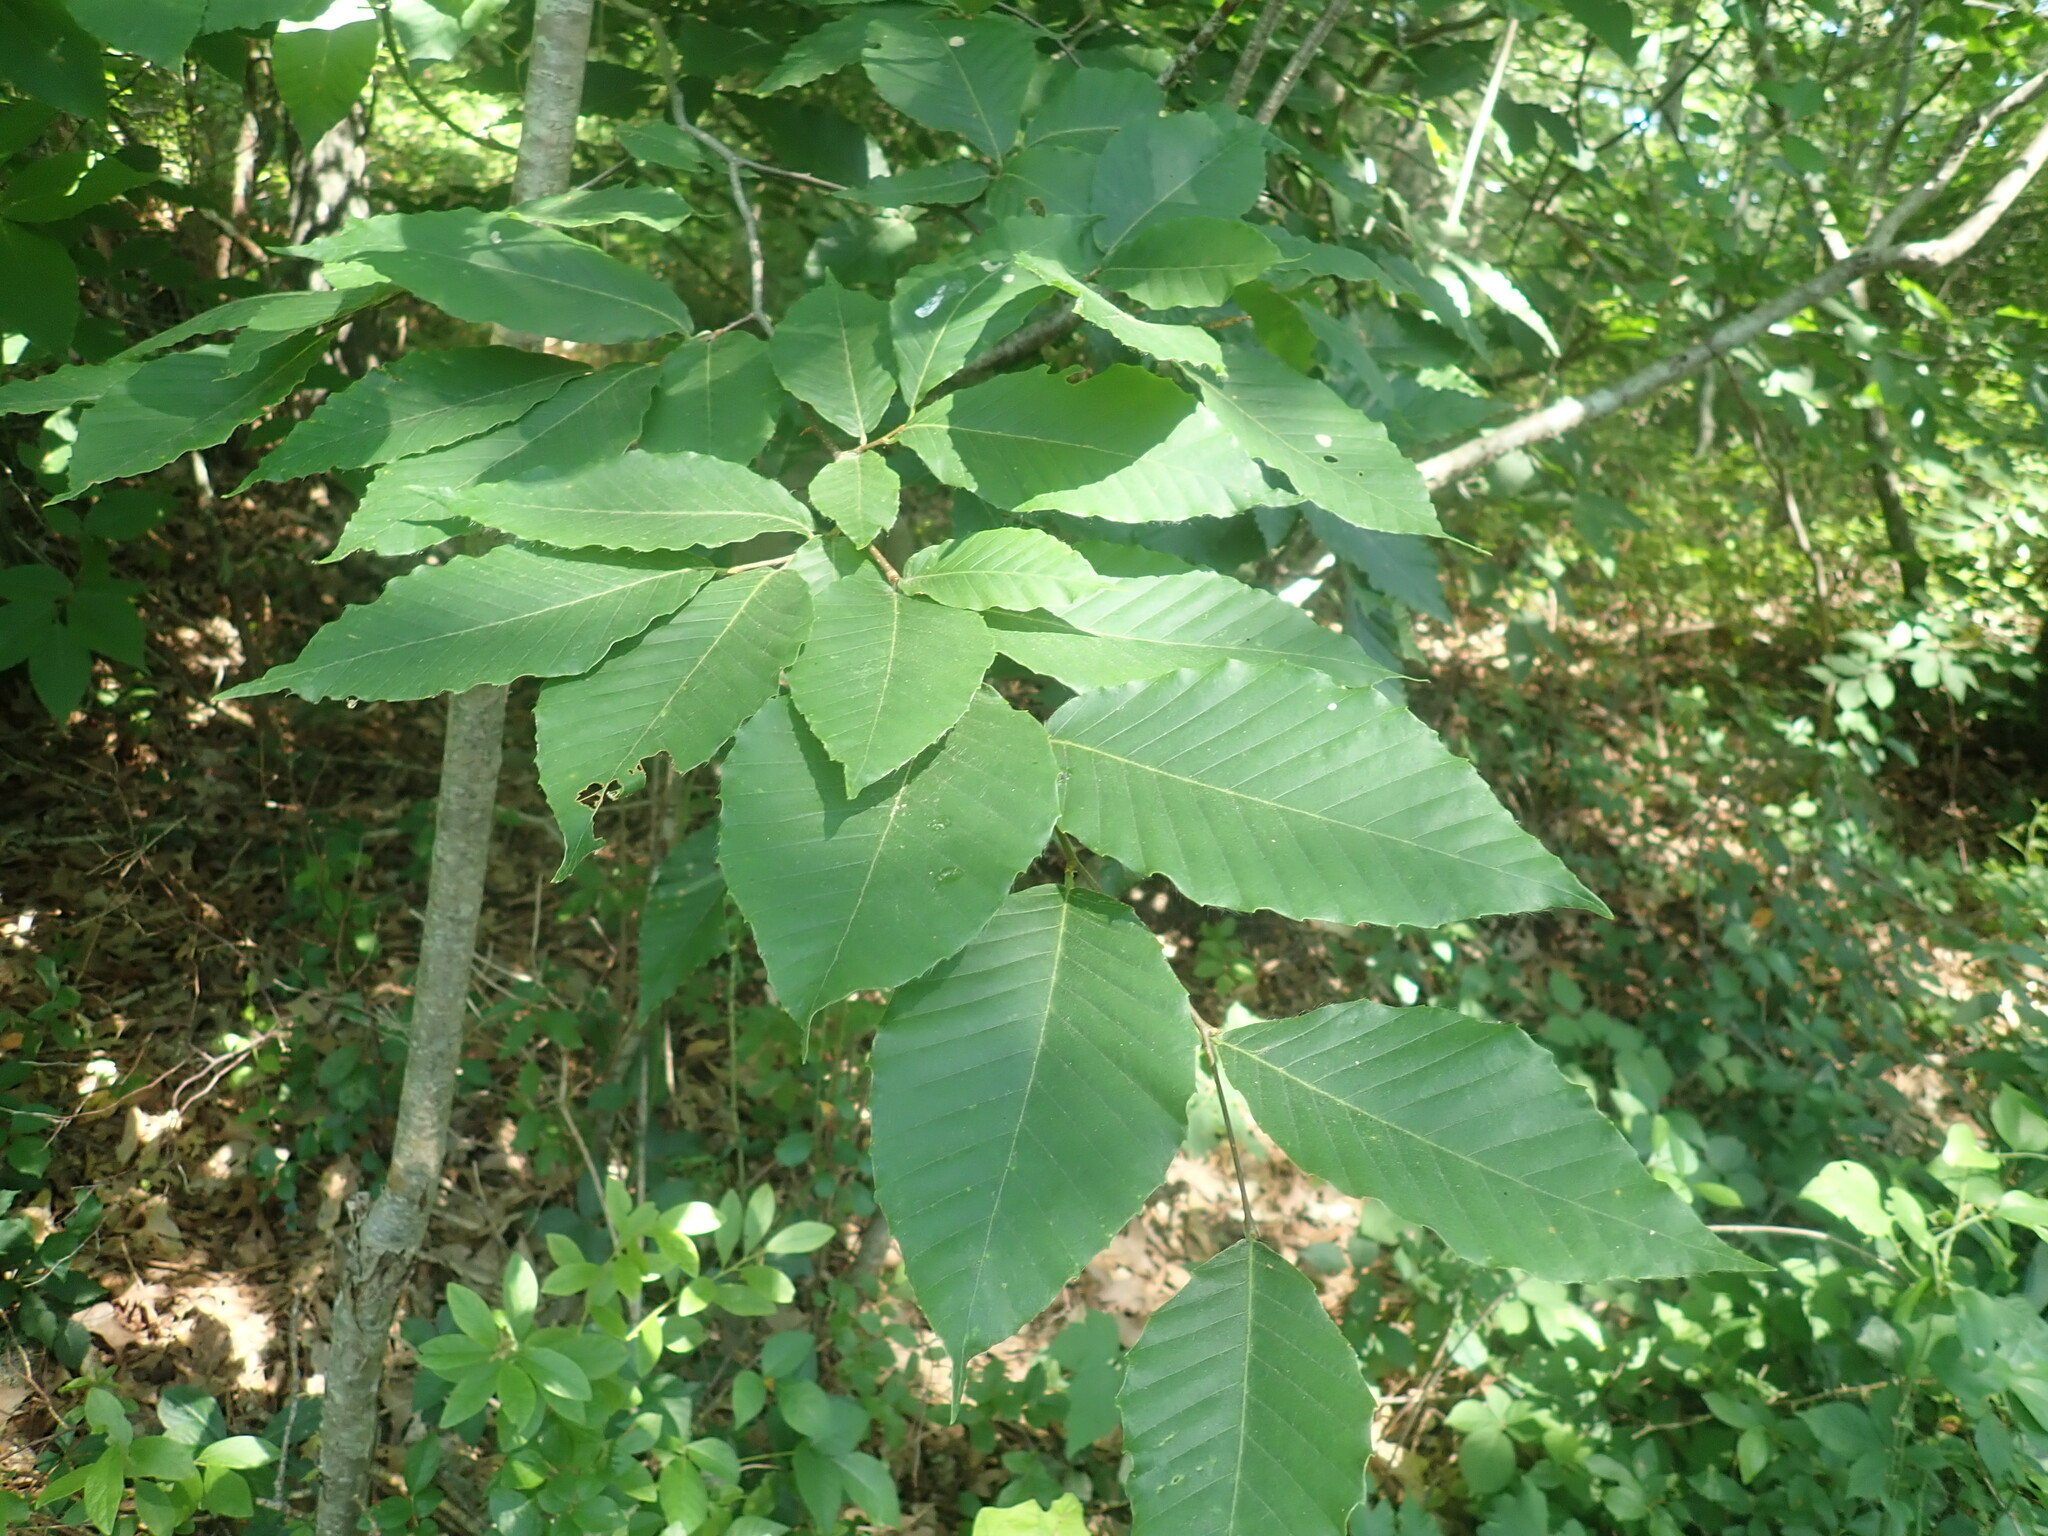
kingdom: Plantae
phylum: Tracheophyta
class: Magnoliopsida
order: Fagales
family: Fagaceae
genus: Fagus
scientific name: Fagus grandifolia
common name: American beech
